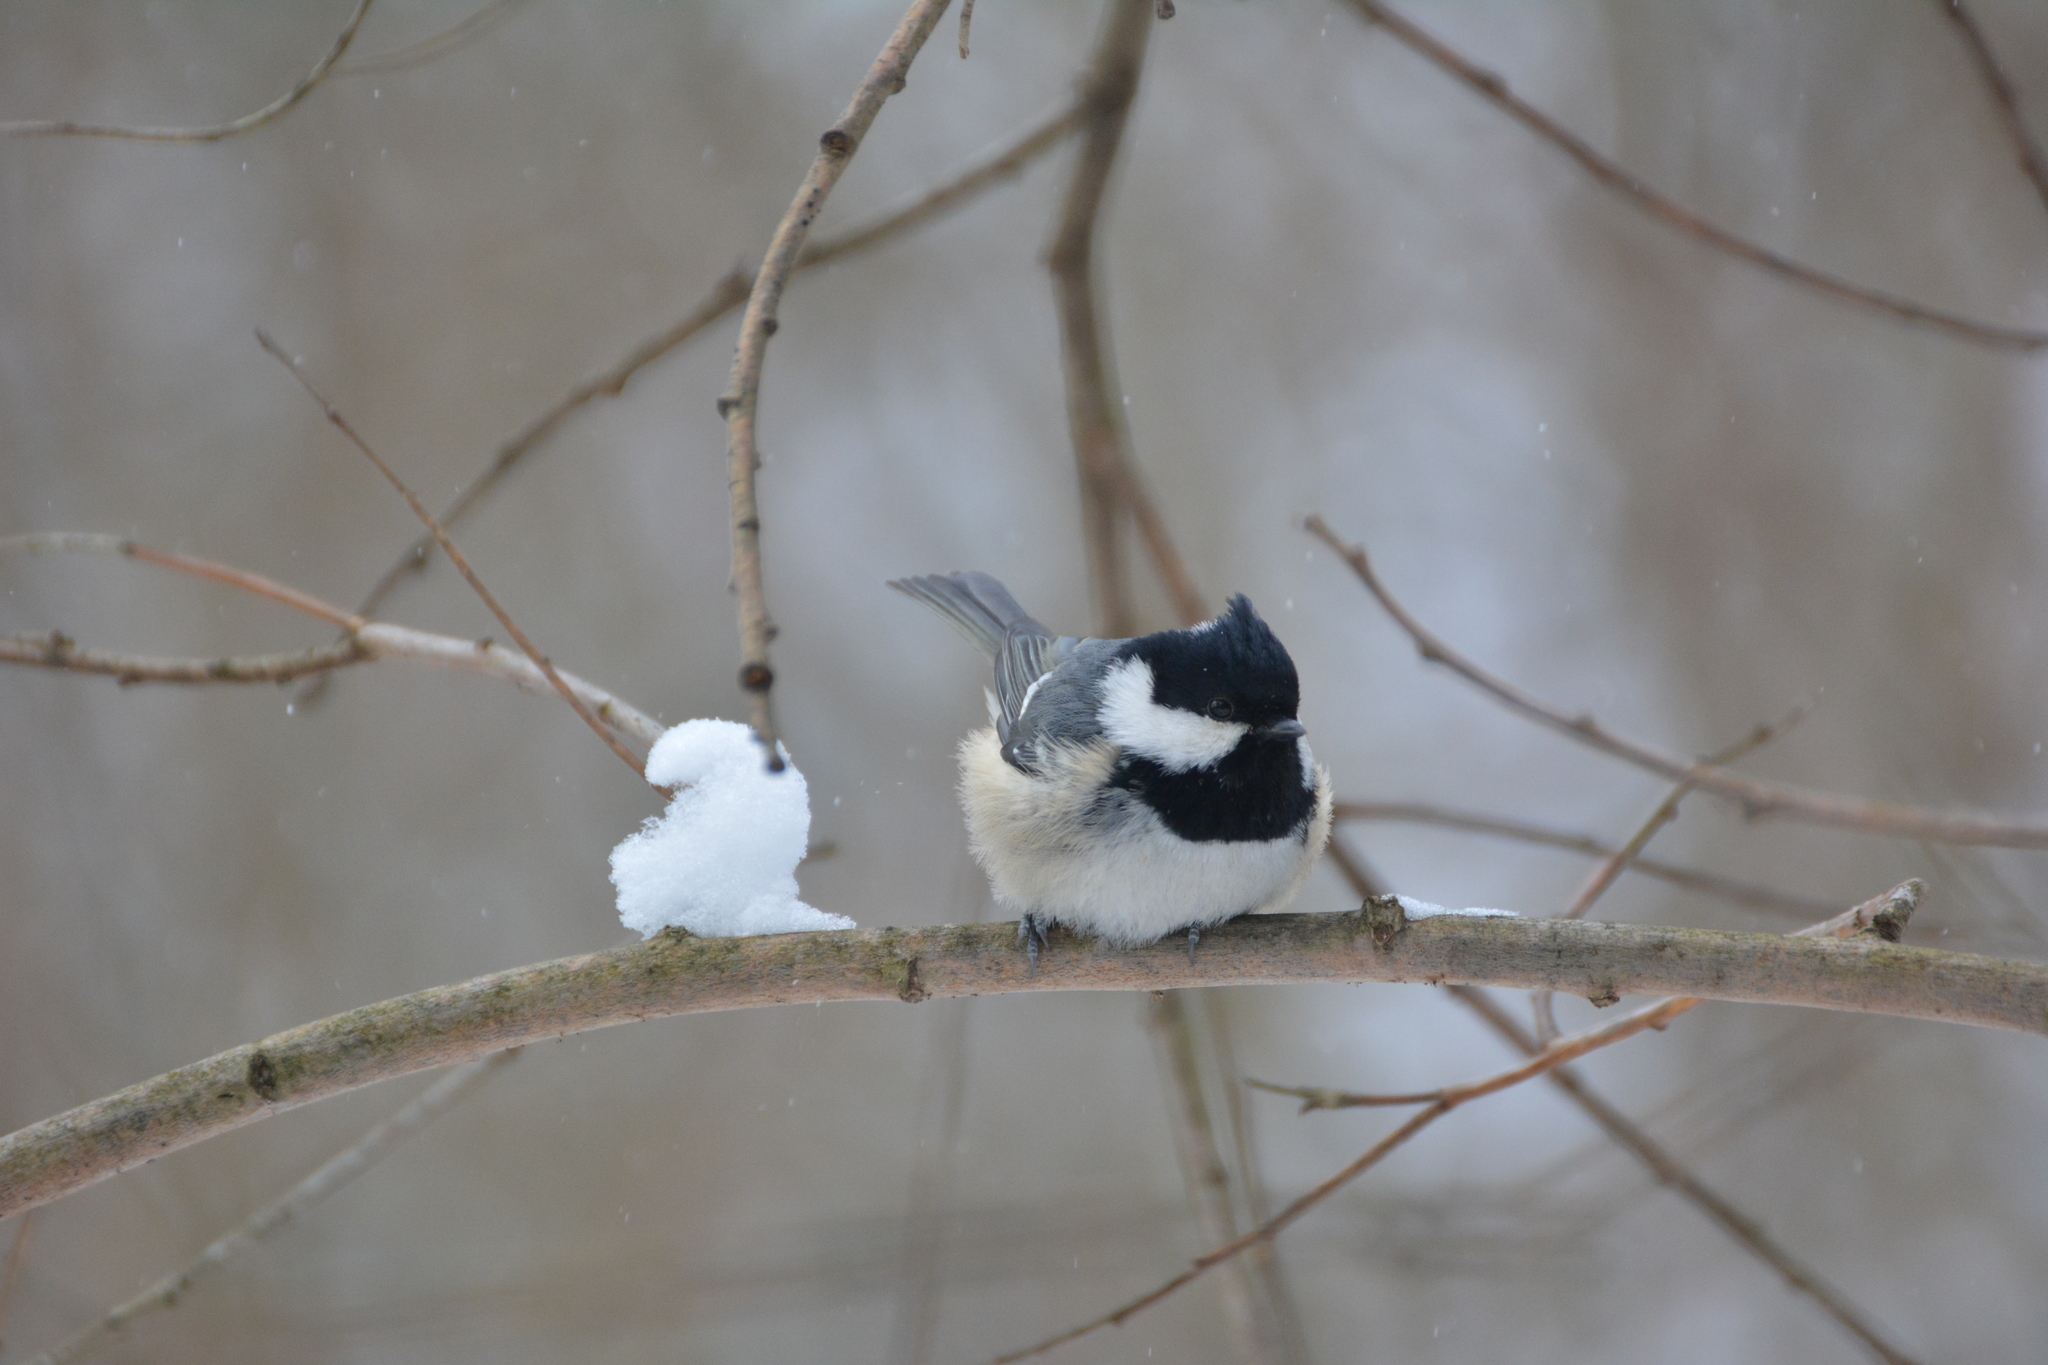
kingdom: Animalia
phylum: Chordata
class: Aves
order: Passeriformes
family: Paridae
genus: Periparus
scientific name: Periparus ater
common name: Coal tit
